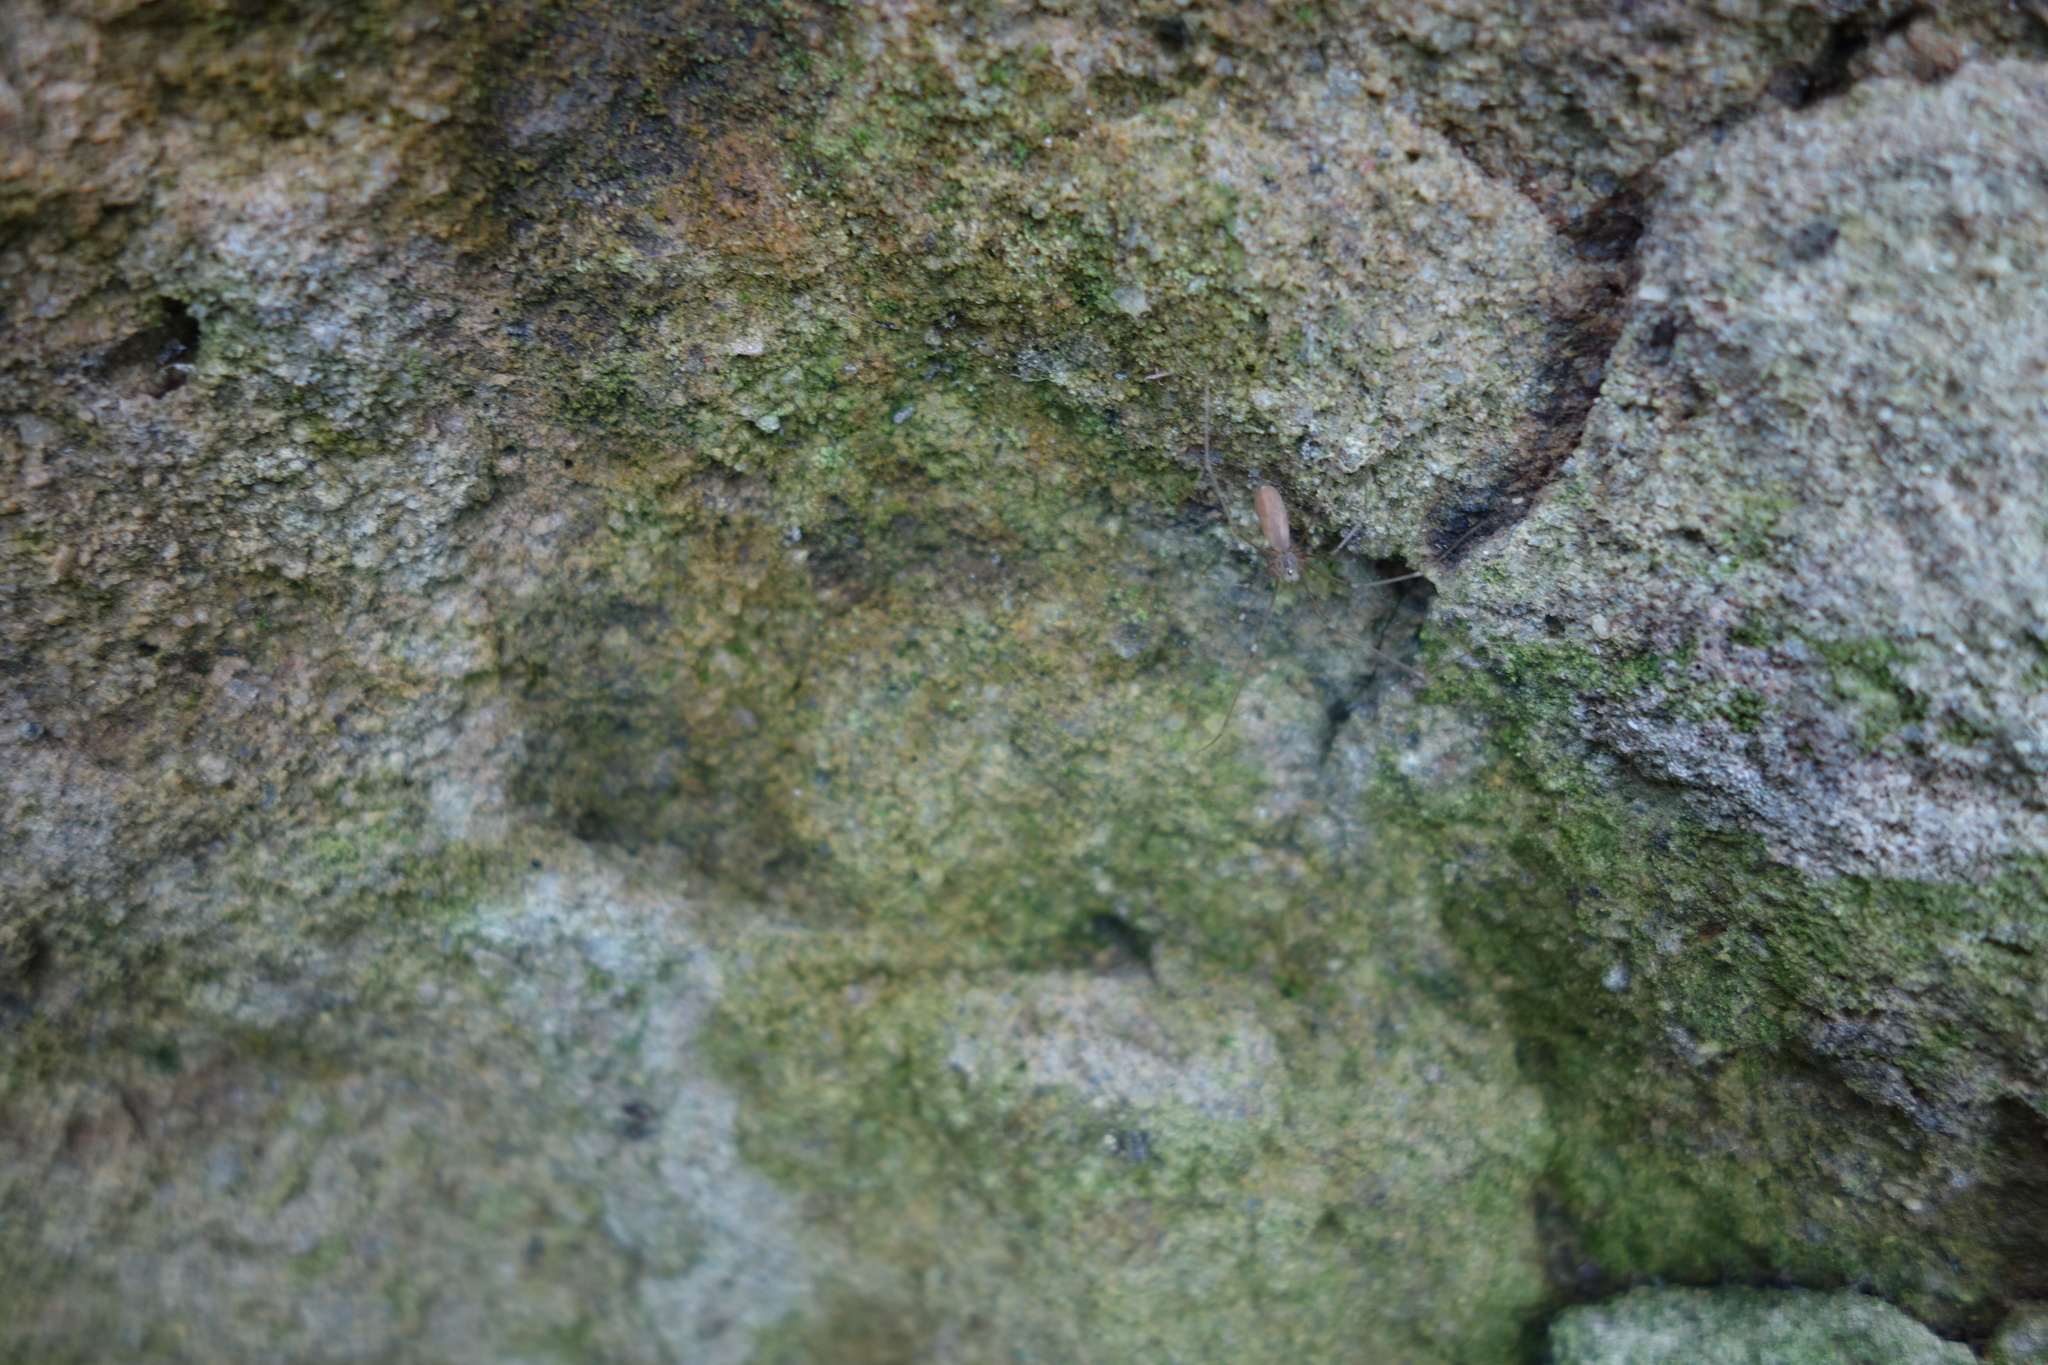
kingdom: Animalia
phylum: Arthropoda
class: Arachnida
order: Araneae
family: Pholcidae
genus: Pholcus
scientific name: Pholcus opilionoides
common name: Daddylongleg spider
